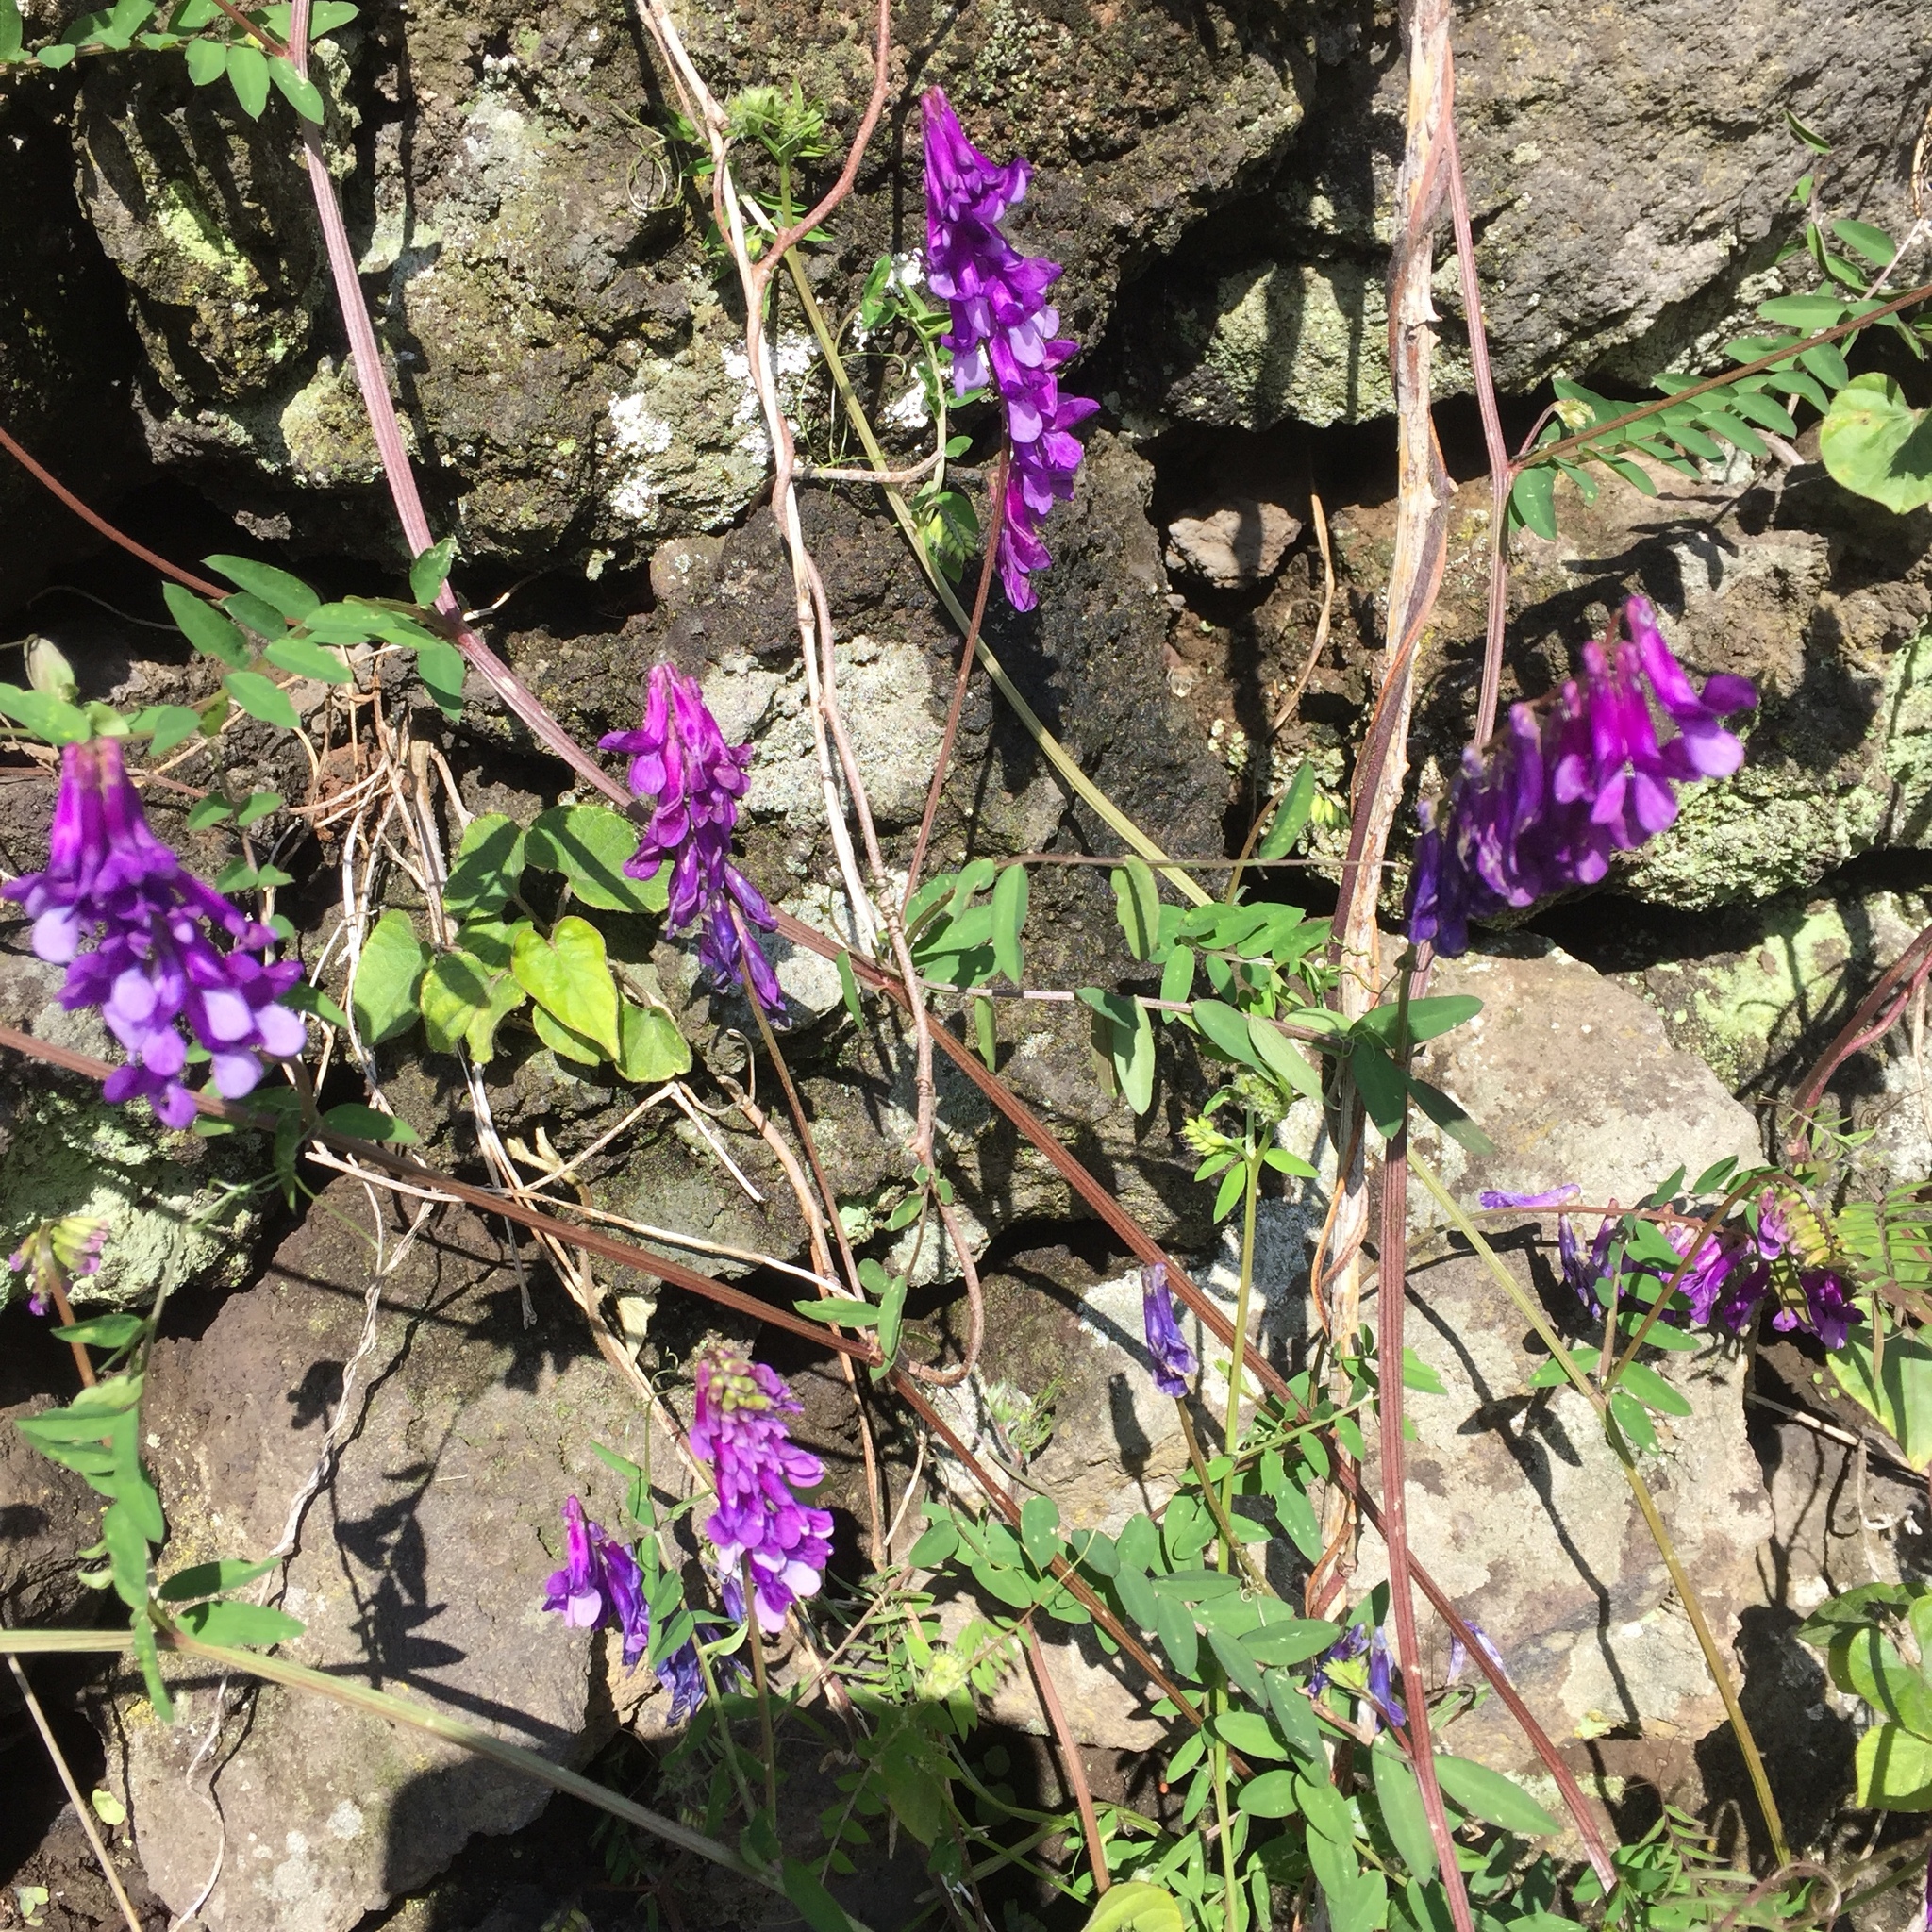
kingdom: Plantae
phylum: Tracheophyta
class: Magnoliopsida
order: Fabales
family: Fabaceae
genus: Vicia
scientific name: Vicia villosa
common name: Fodder vetch
